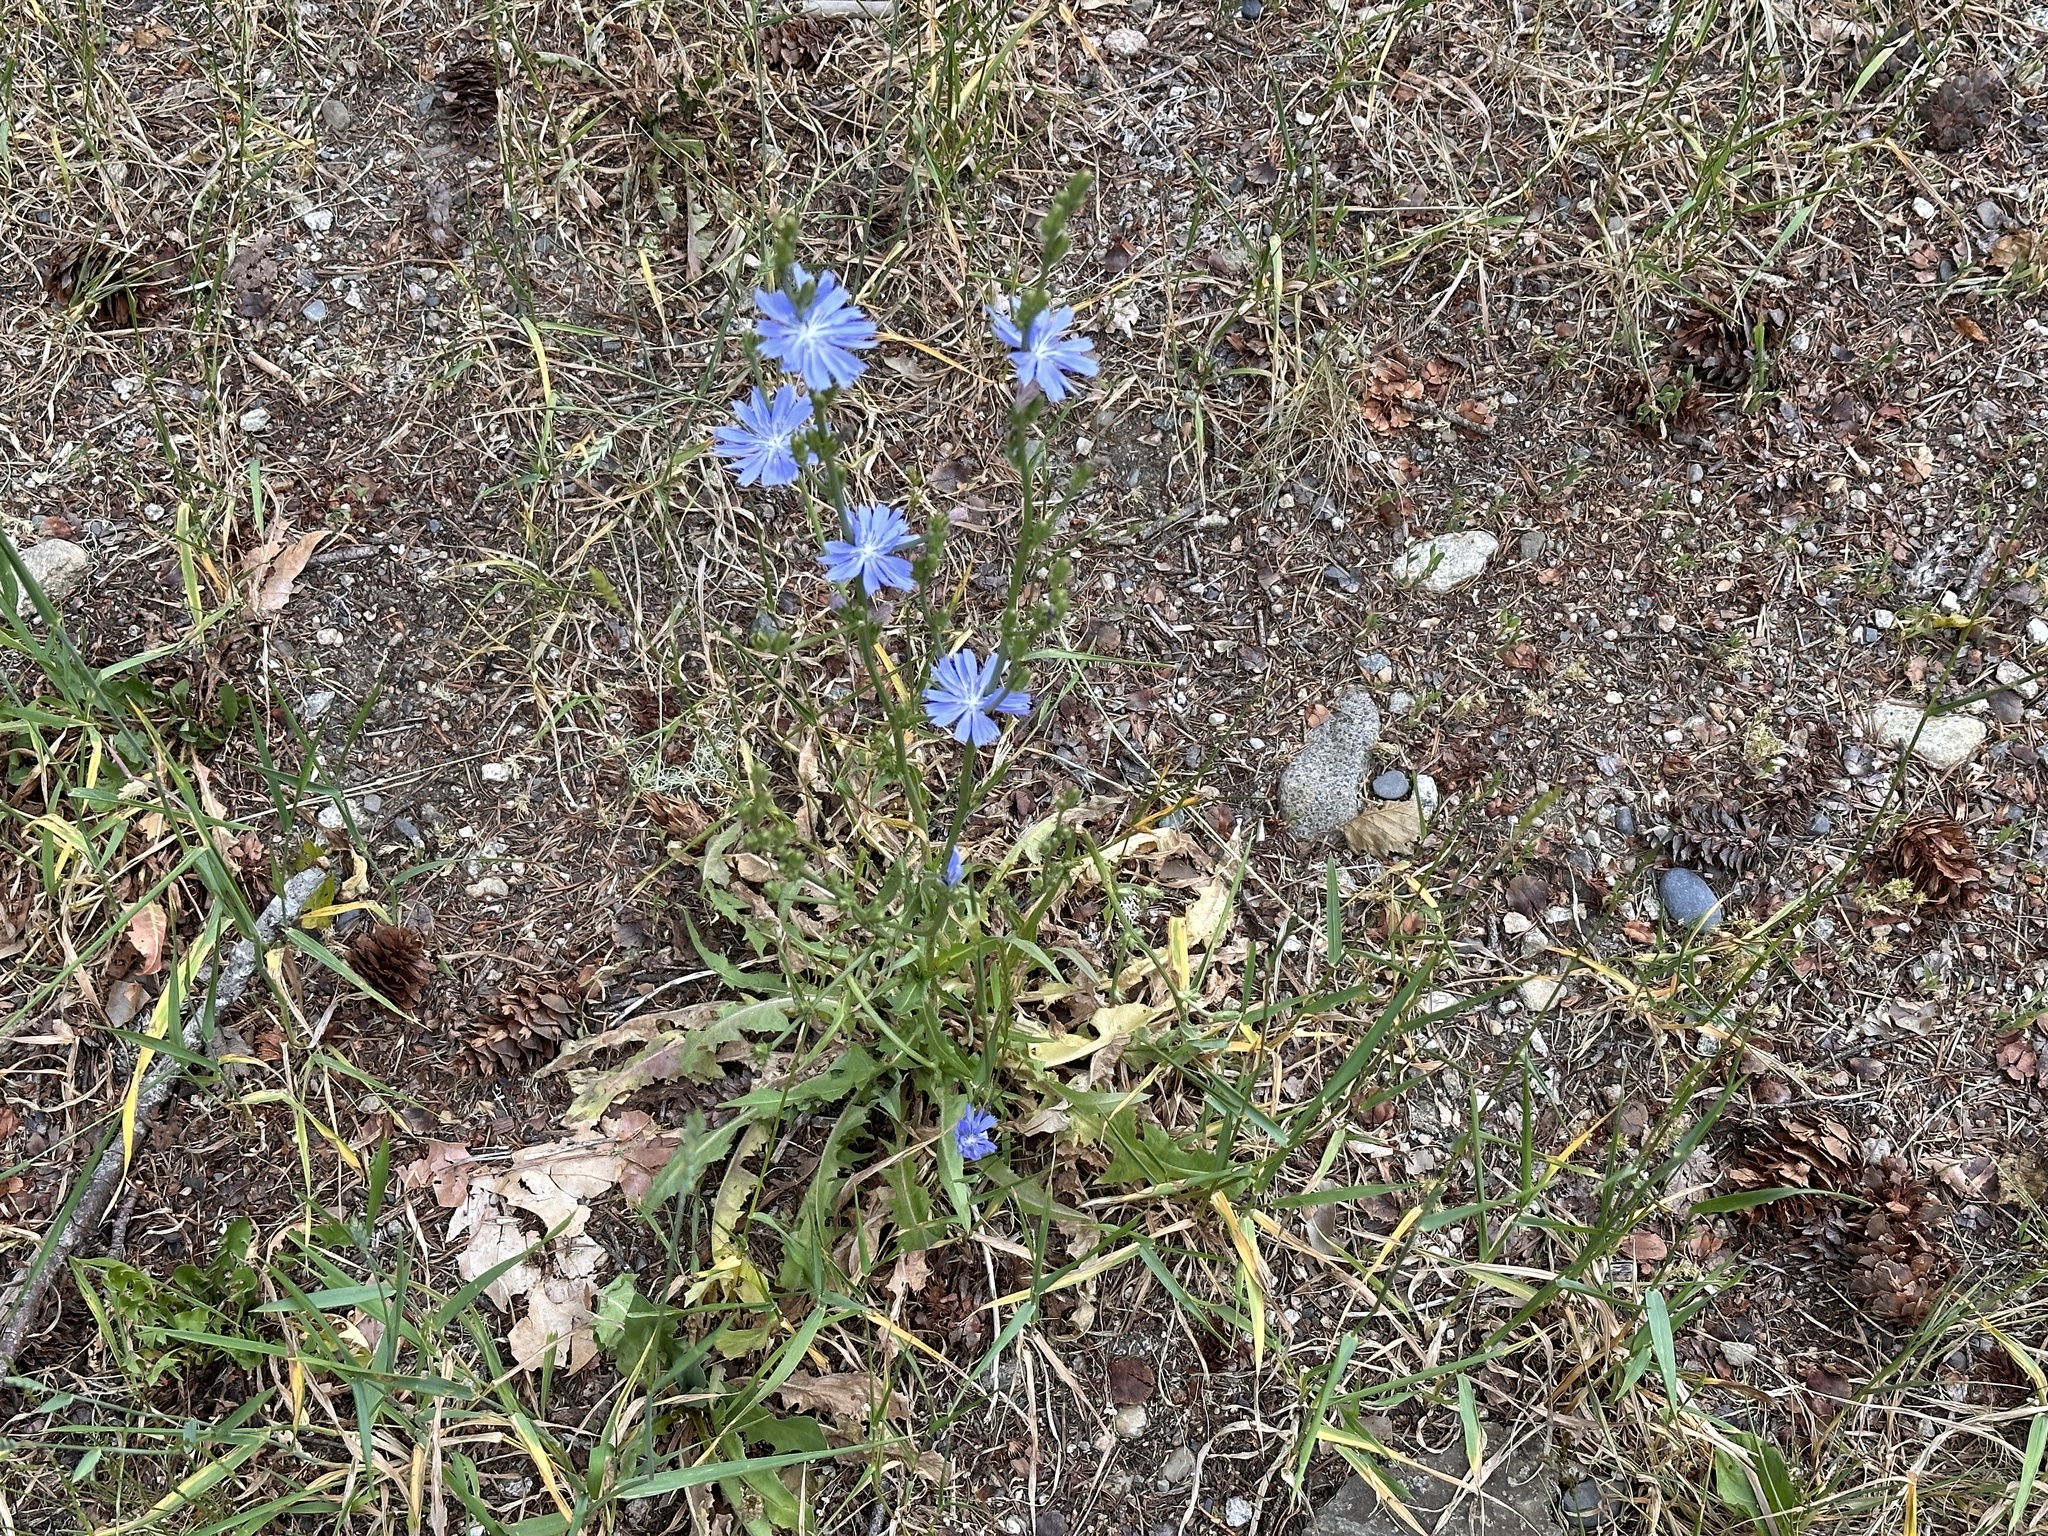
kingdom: Plantae
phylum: Tracheophyta
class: Magnoliopsida
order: Asterales
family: Asteraceae
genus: Cichorium
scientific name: Cichorium intybus
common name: Chicory
